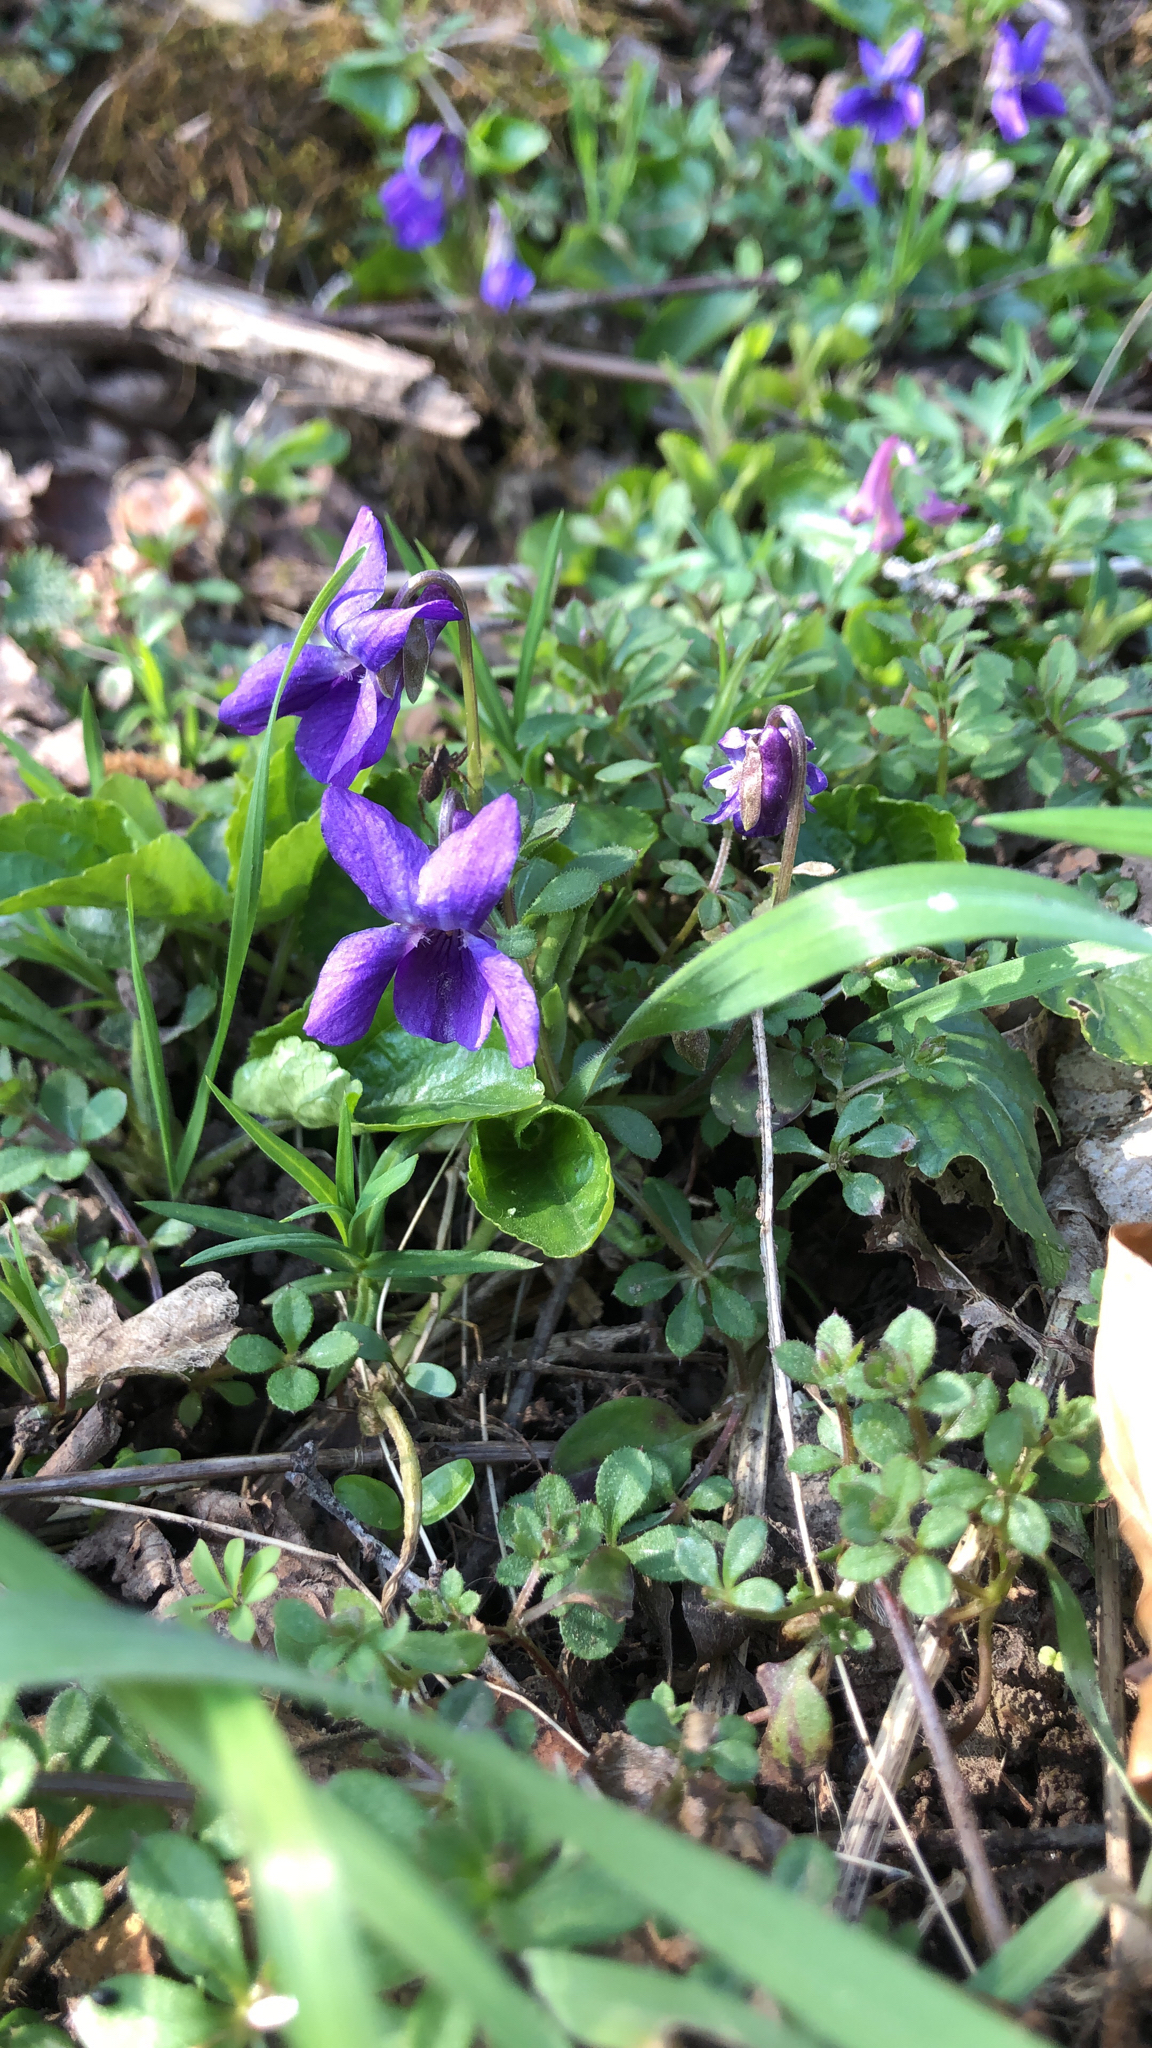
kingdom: Plantae
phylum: Tracheophyta
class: Magnoliopsida
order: Malpighiales
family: Violaceae
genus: Viola
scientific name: Viola odorata
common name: Sweet violet
